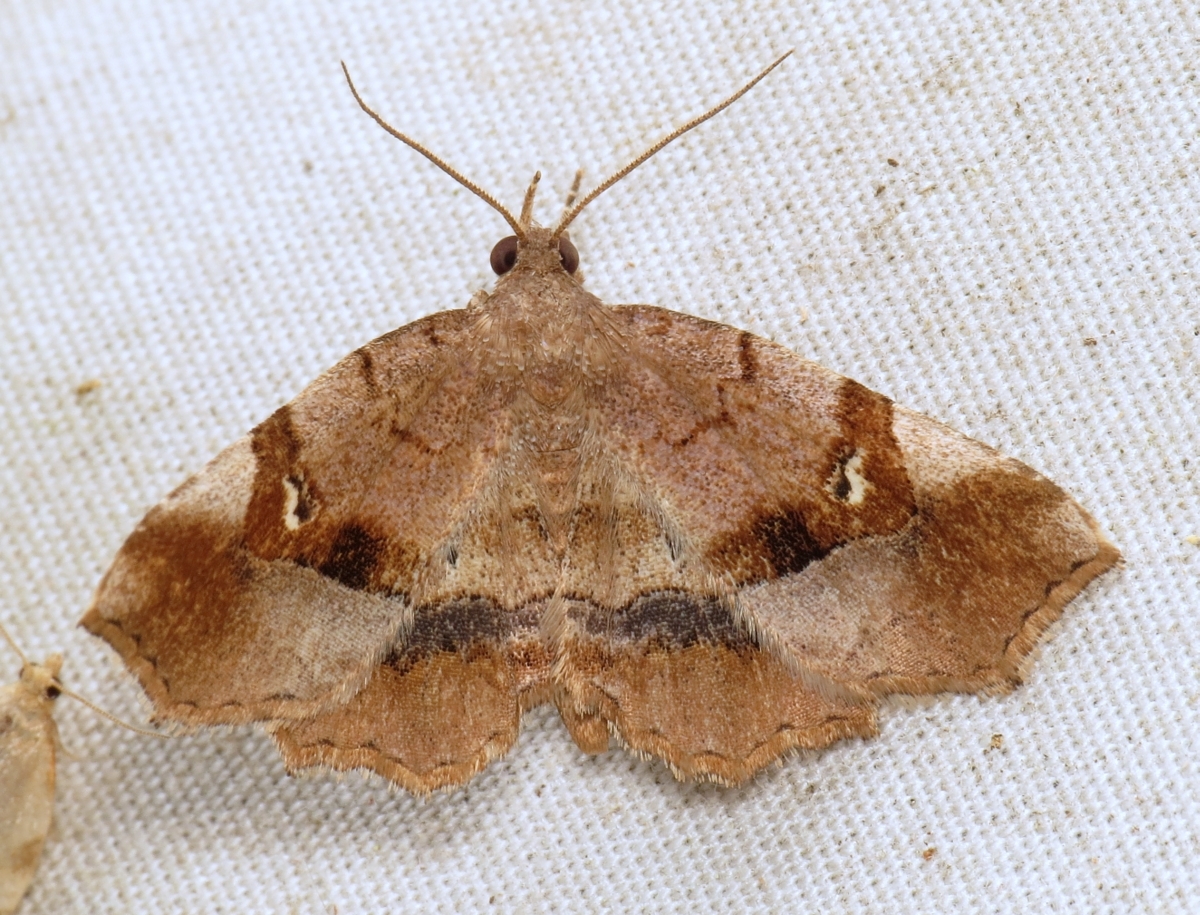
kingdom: Animalia
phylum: Arthropoda
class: Insecta
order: Lepidoptera
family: Erebidae
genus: Pangrapta
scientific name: Pangrapta decoralis
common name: Decorated owlet
